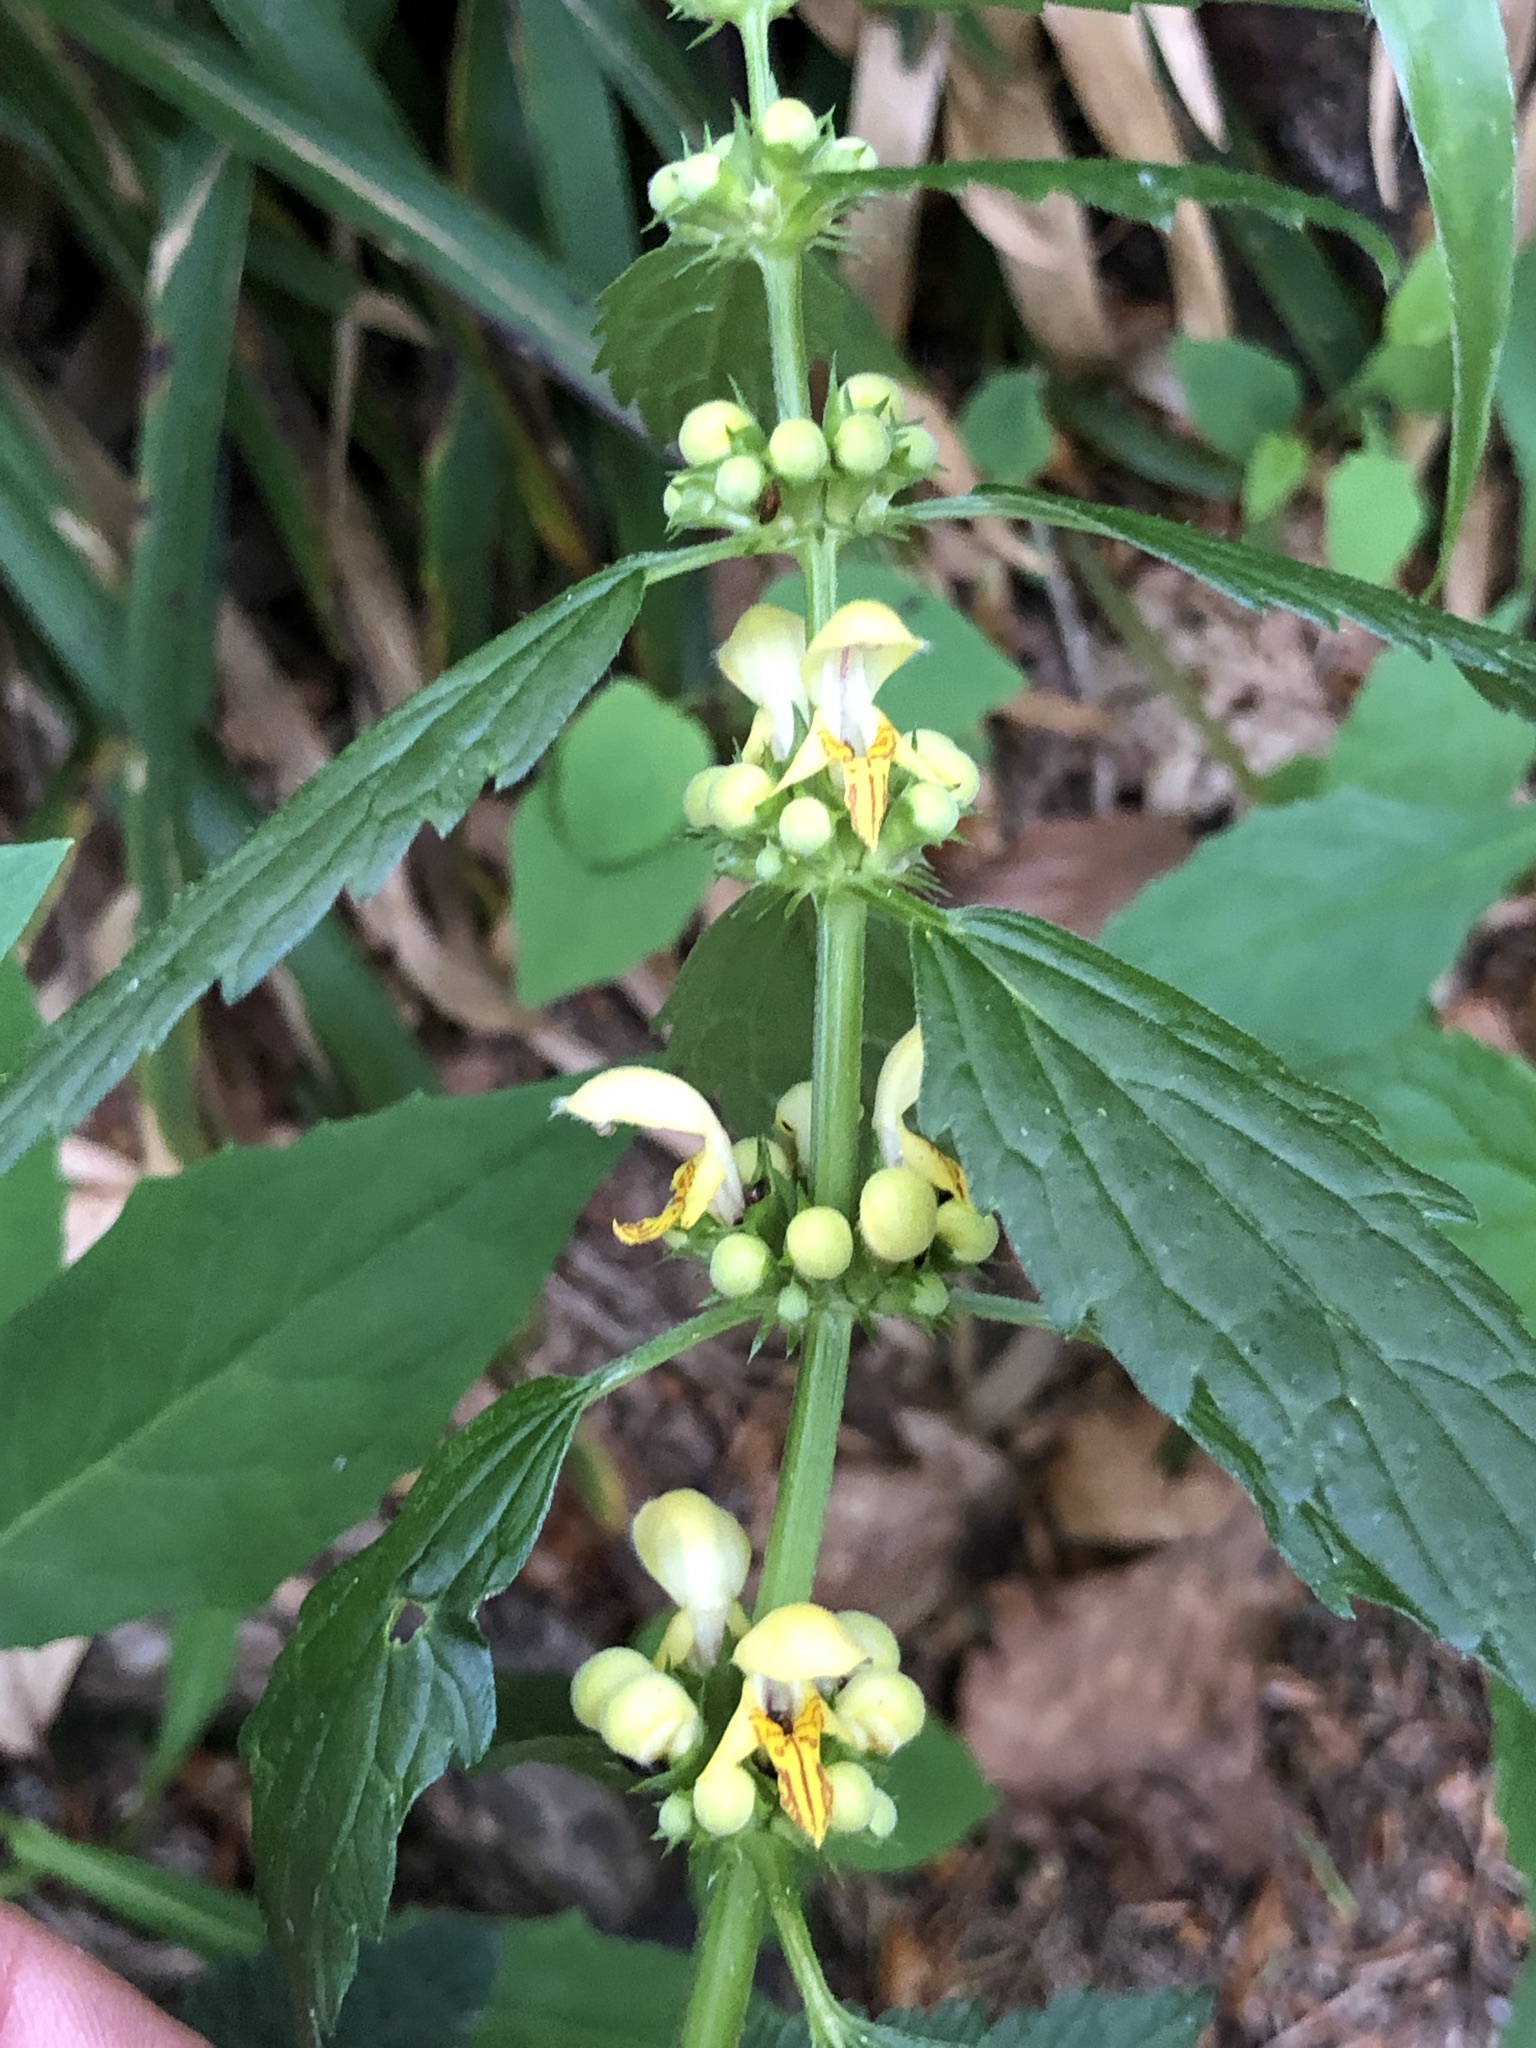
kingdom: Plantae
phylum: Tracheophyta
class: Magnoliopsida
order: Lamiales
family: Lamiaceae
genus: Lamium
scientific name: Lamium galeobdolon
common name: Yellow archangel
